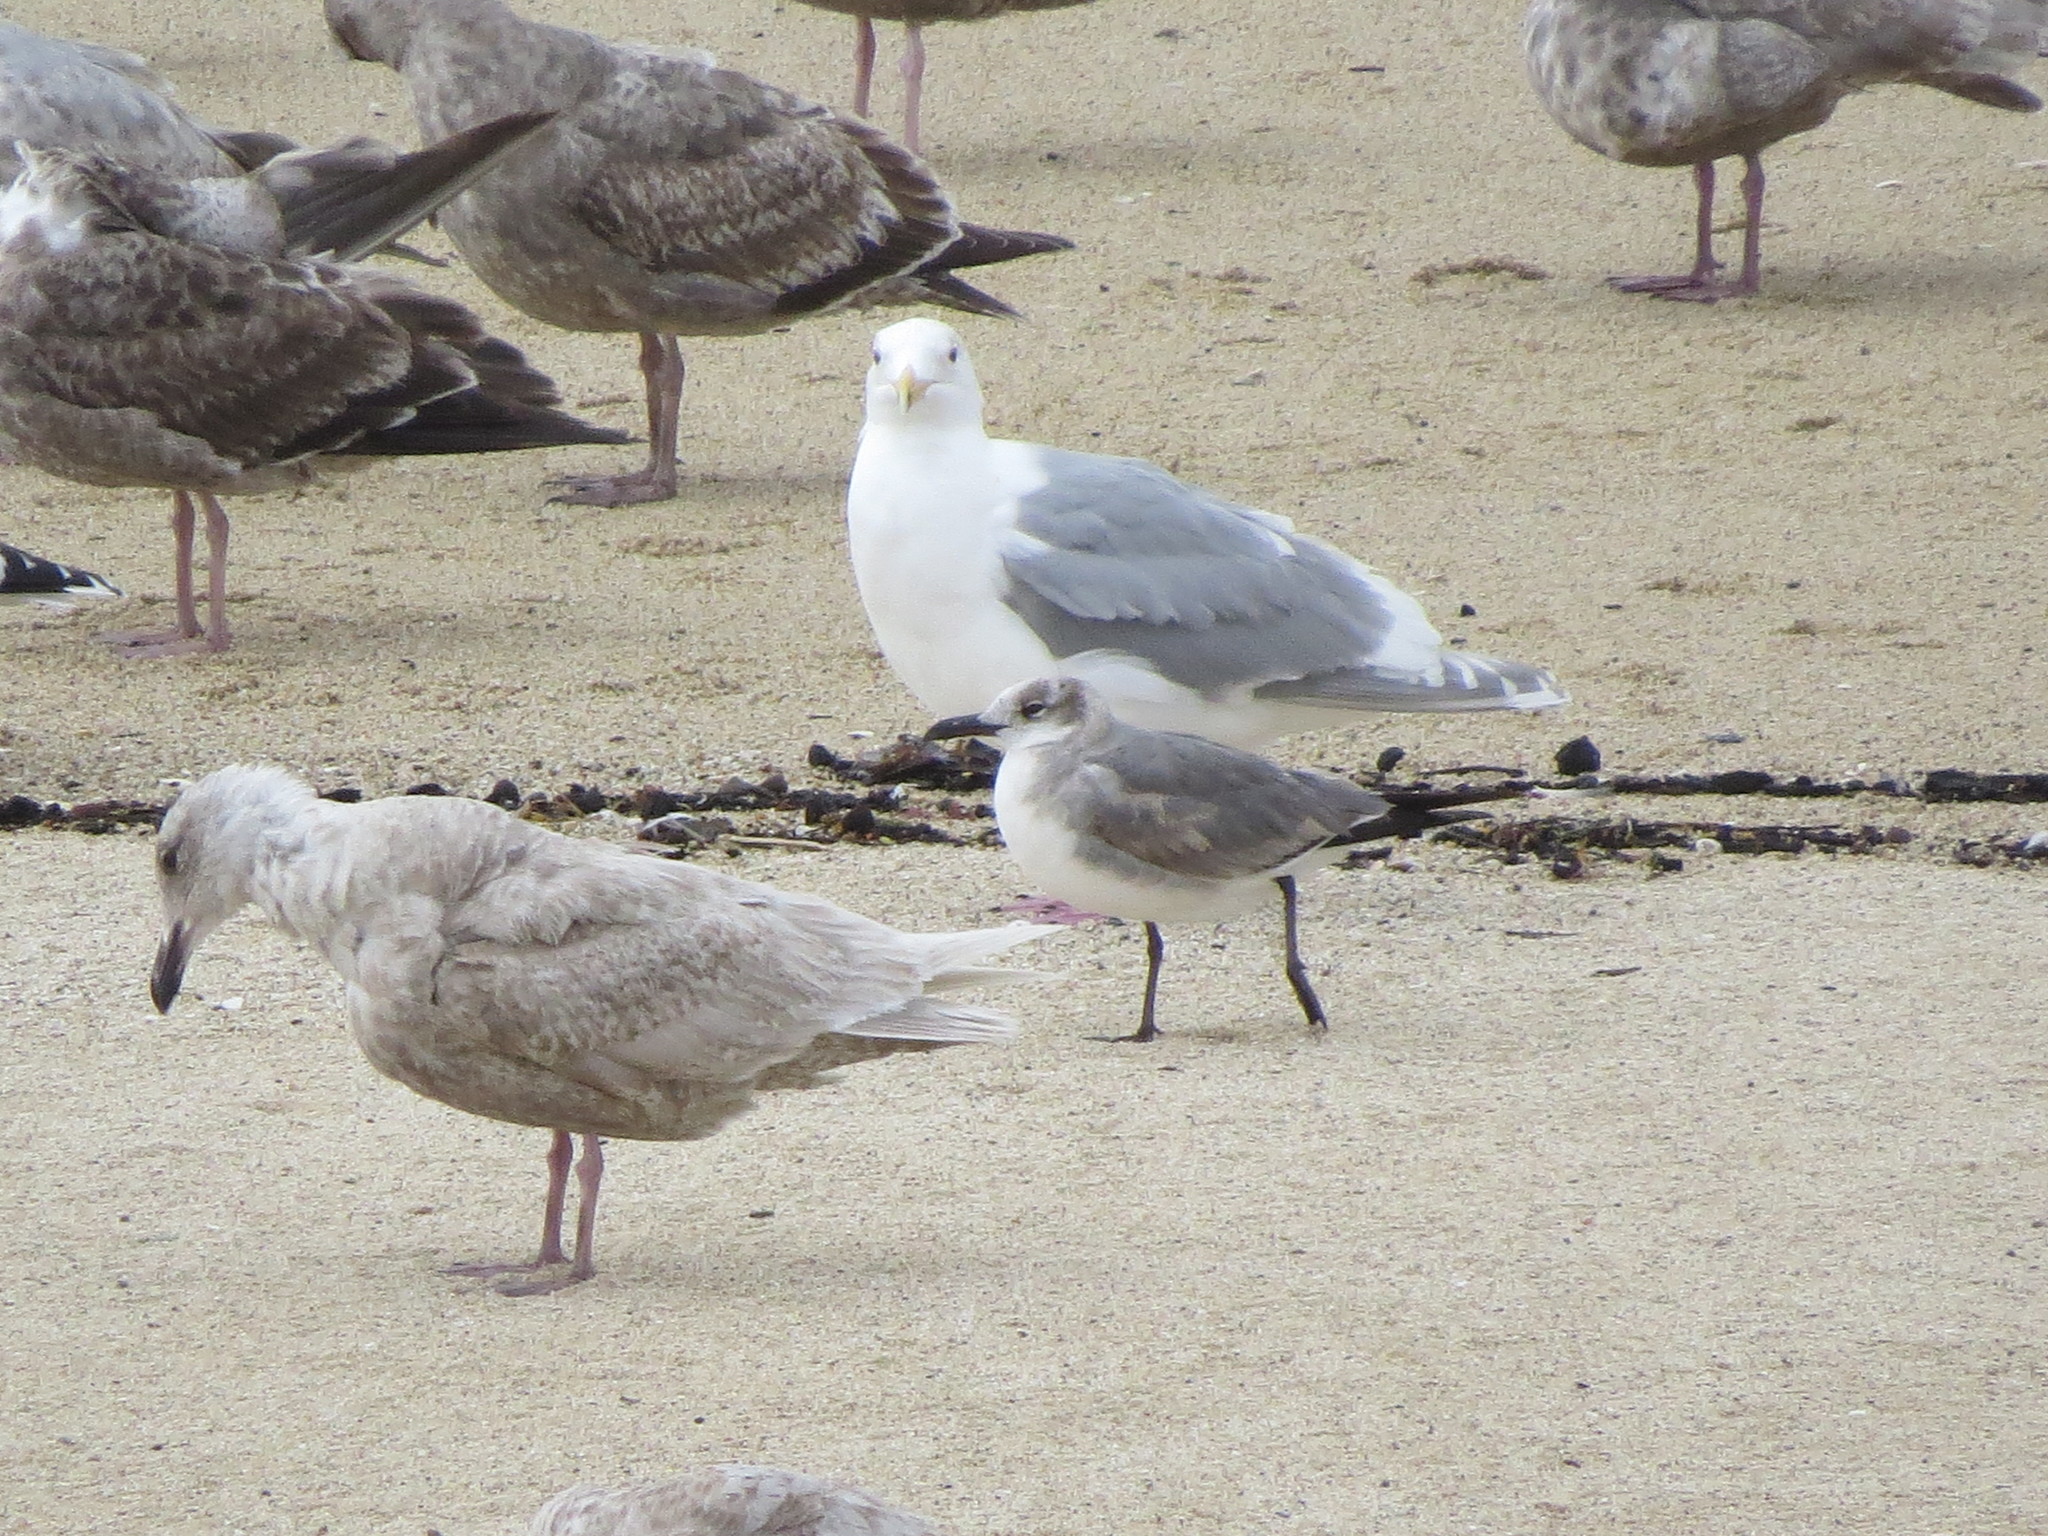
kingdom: Animalia
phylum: Chordata
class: Aves
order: Charadriiformes
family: Laridae
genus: Leucophaeus
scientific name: Leucophaeus atricilla
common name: Laughing gull
